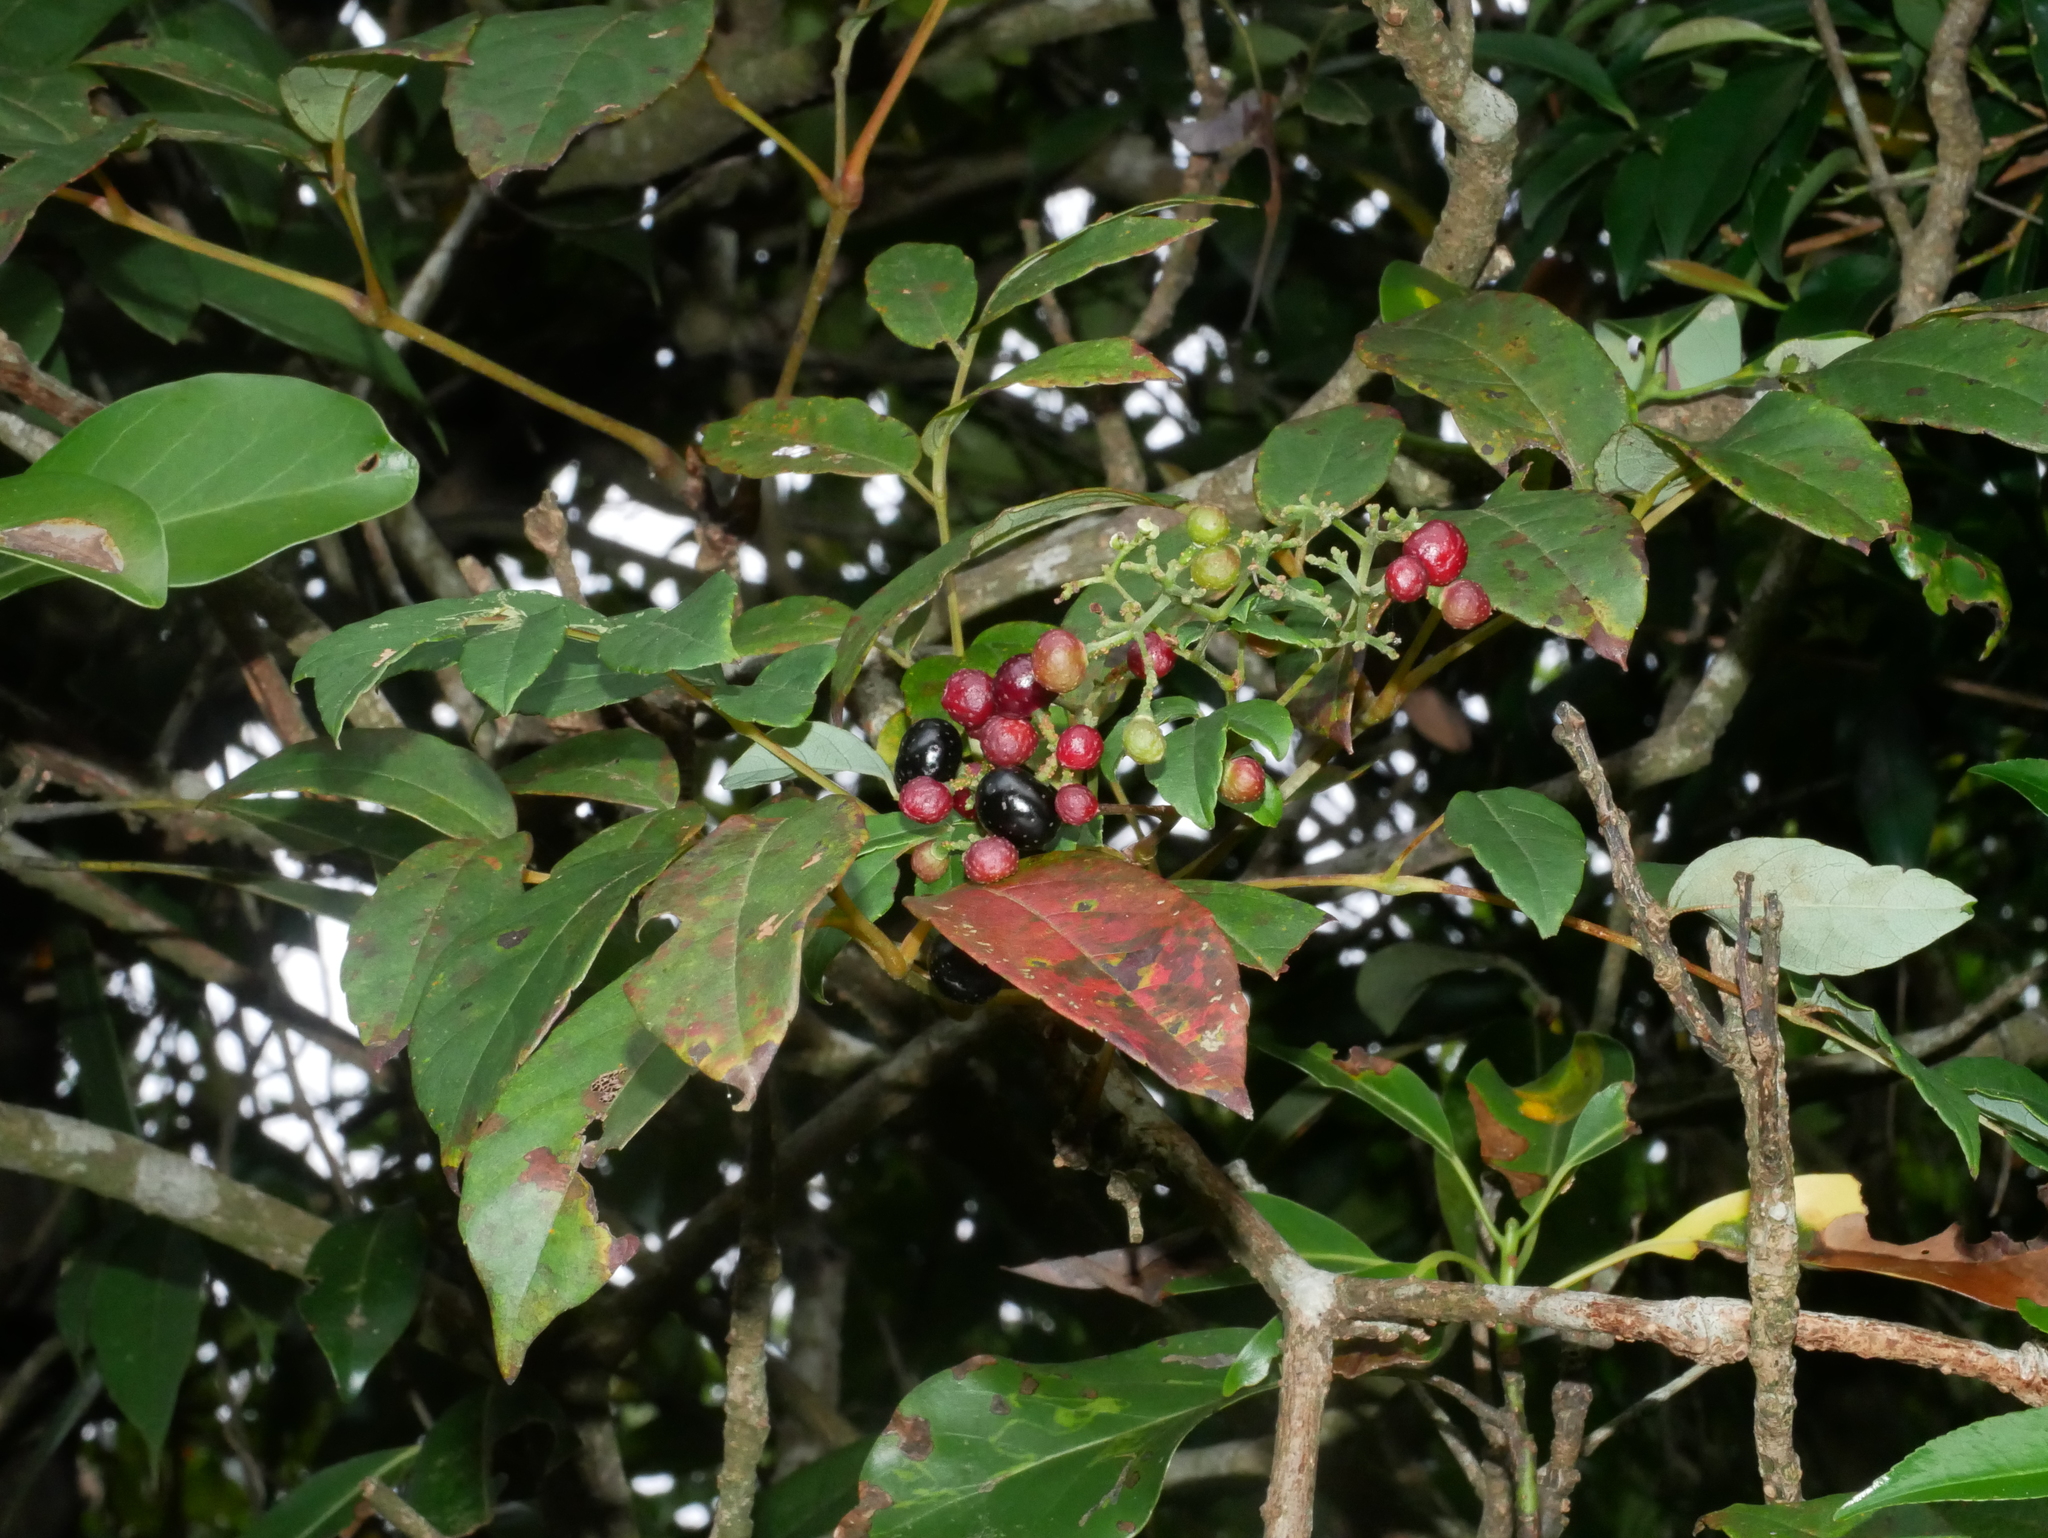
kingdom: Plantae
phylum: Tracheophyta
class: Magnoliopsida
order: Vitales
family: Vitaceae
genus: Nekemias
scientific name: Nekemias cantoniensis
